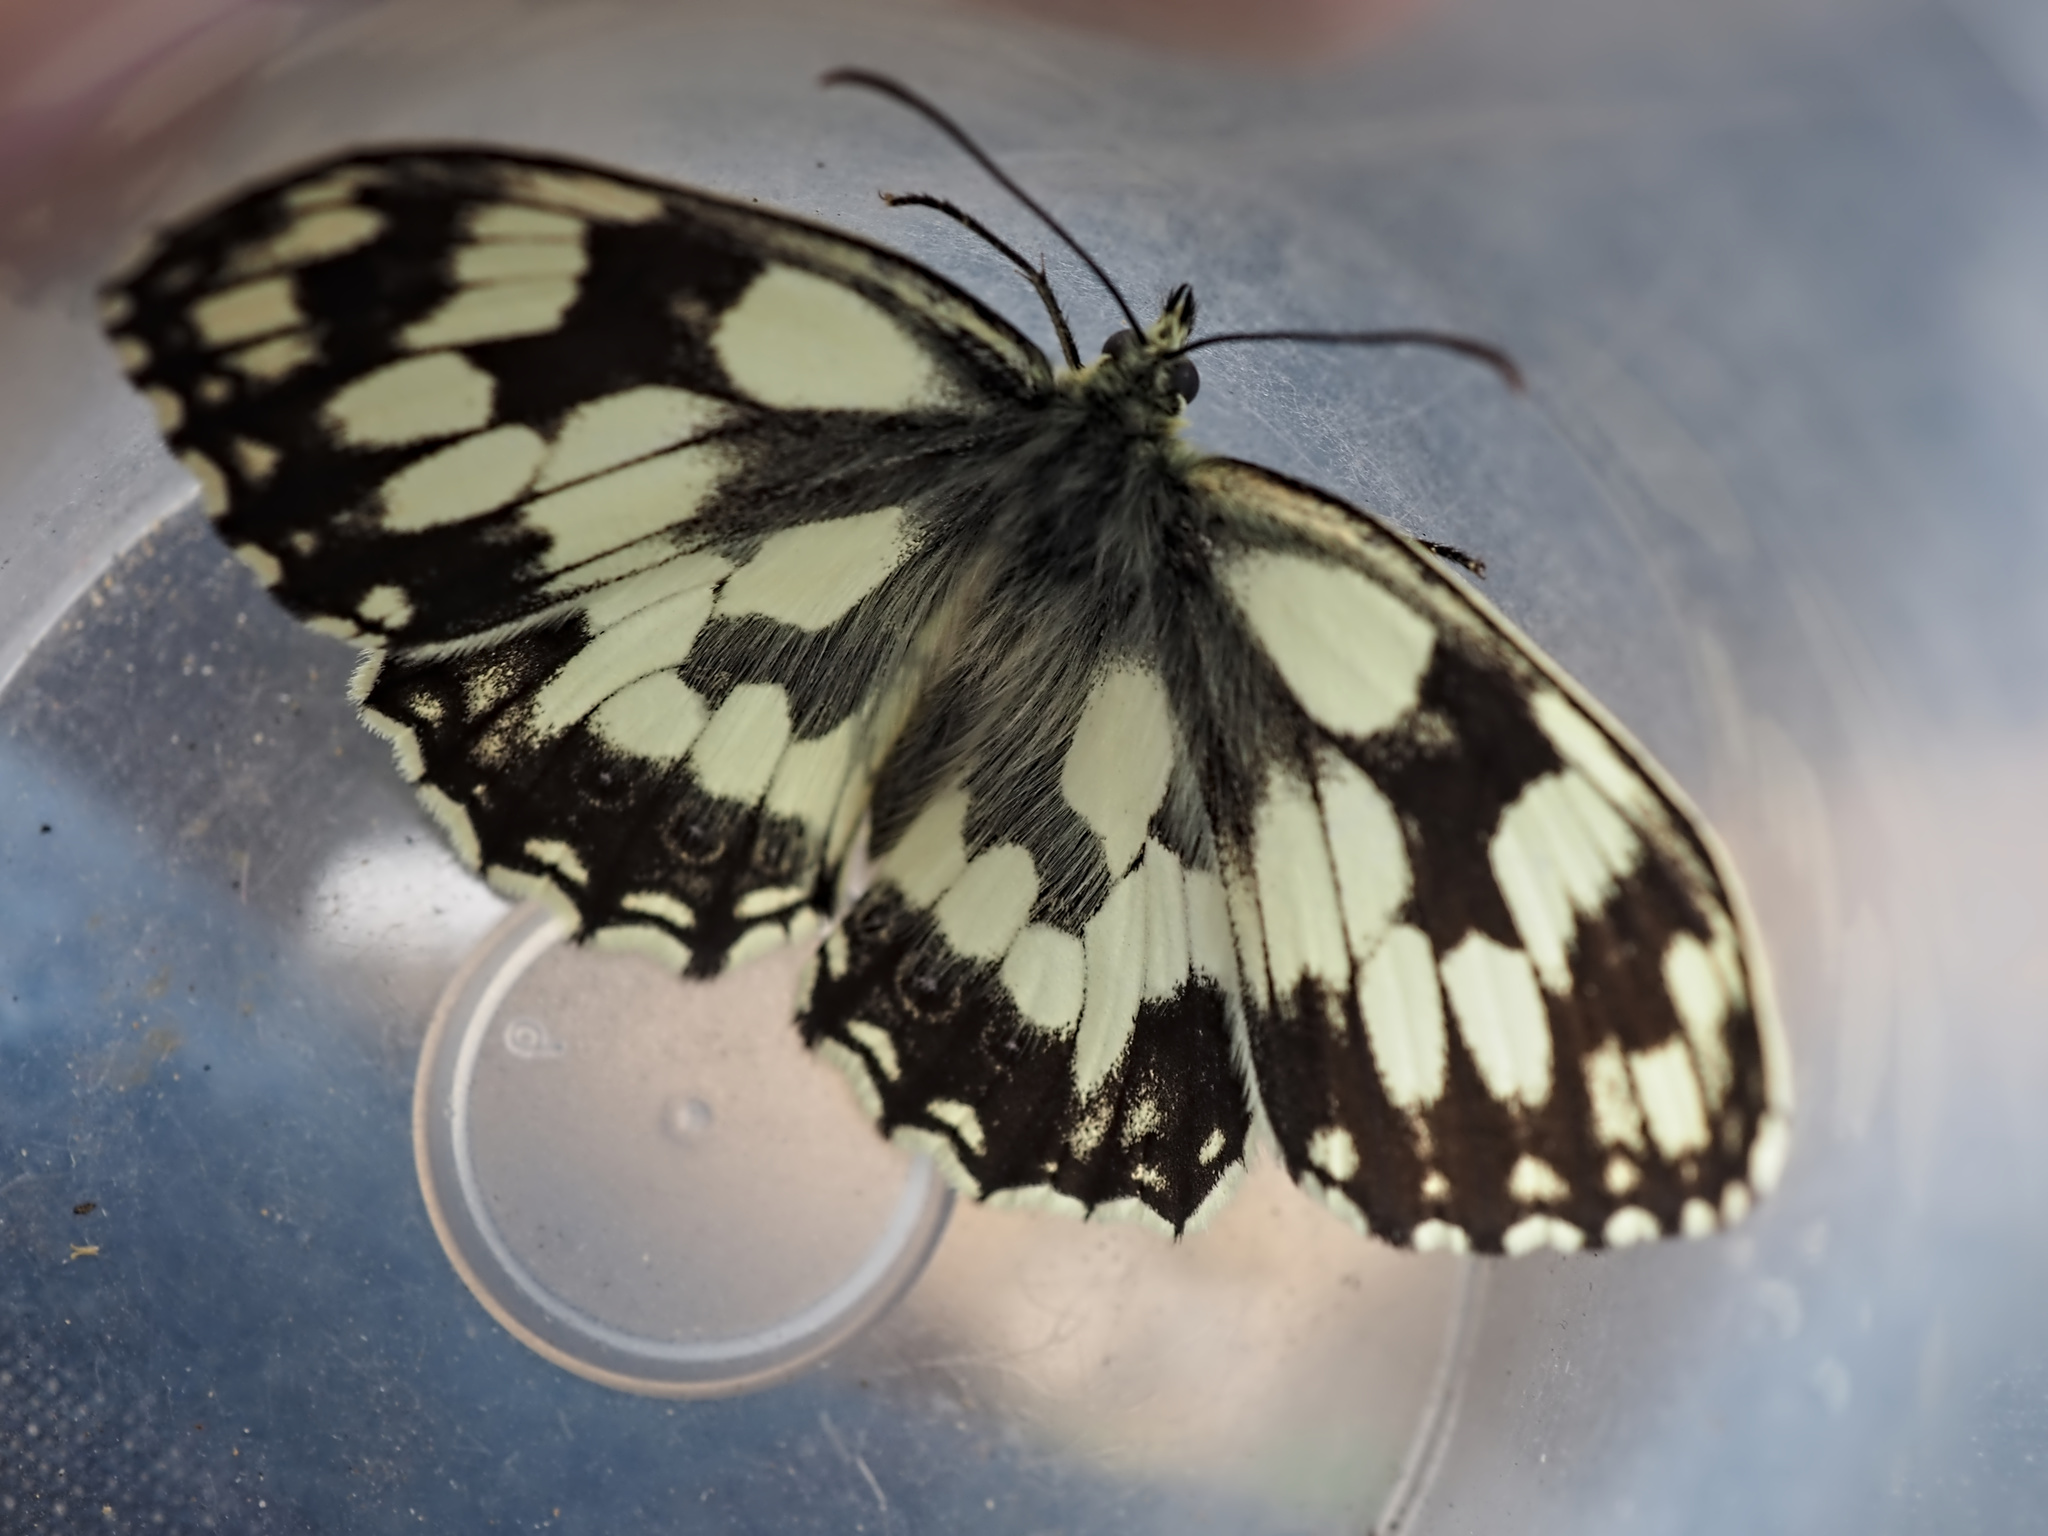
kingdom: Animalia
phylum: Arthropoda
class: Insecta
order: Lepidoptera
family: Nymphalidae
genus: Melanargia
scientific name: Melanargia galathea
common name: Marbled white
